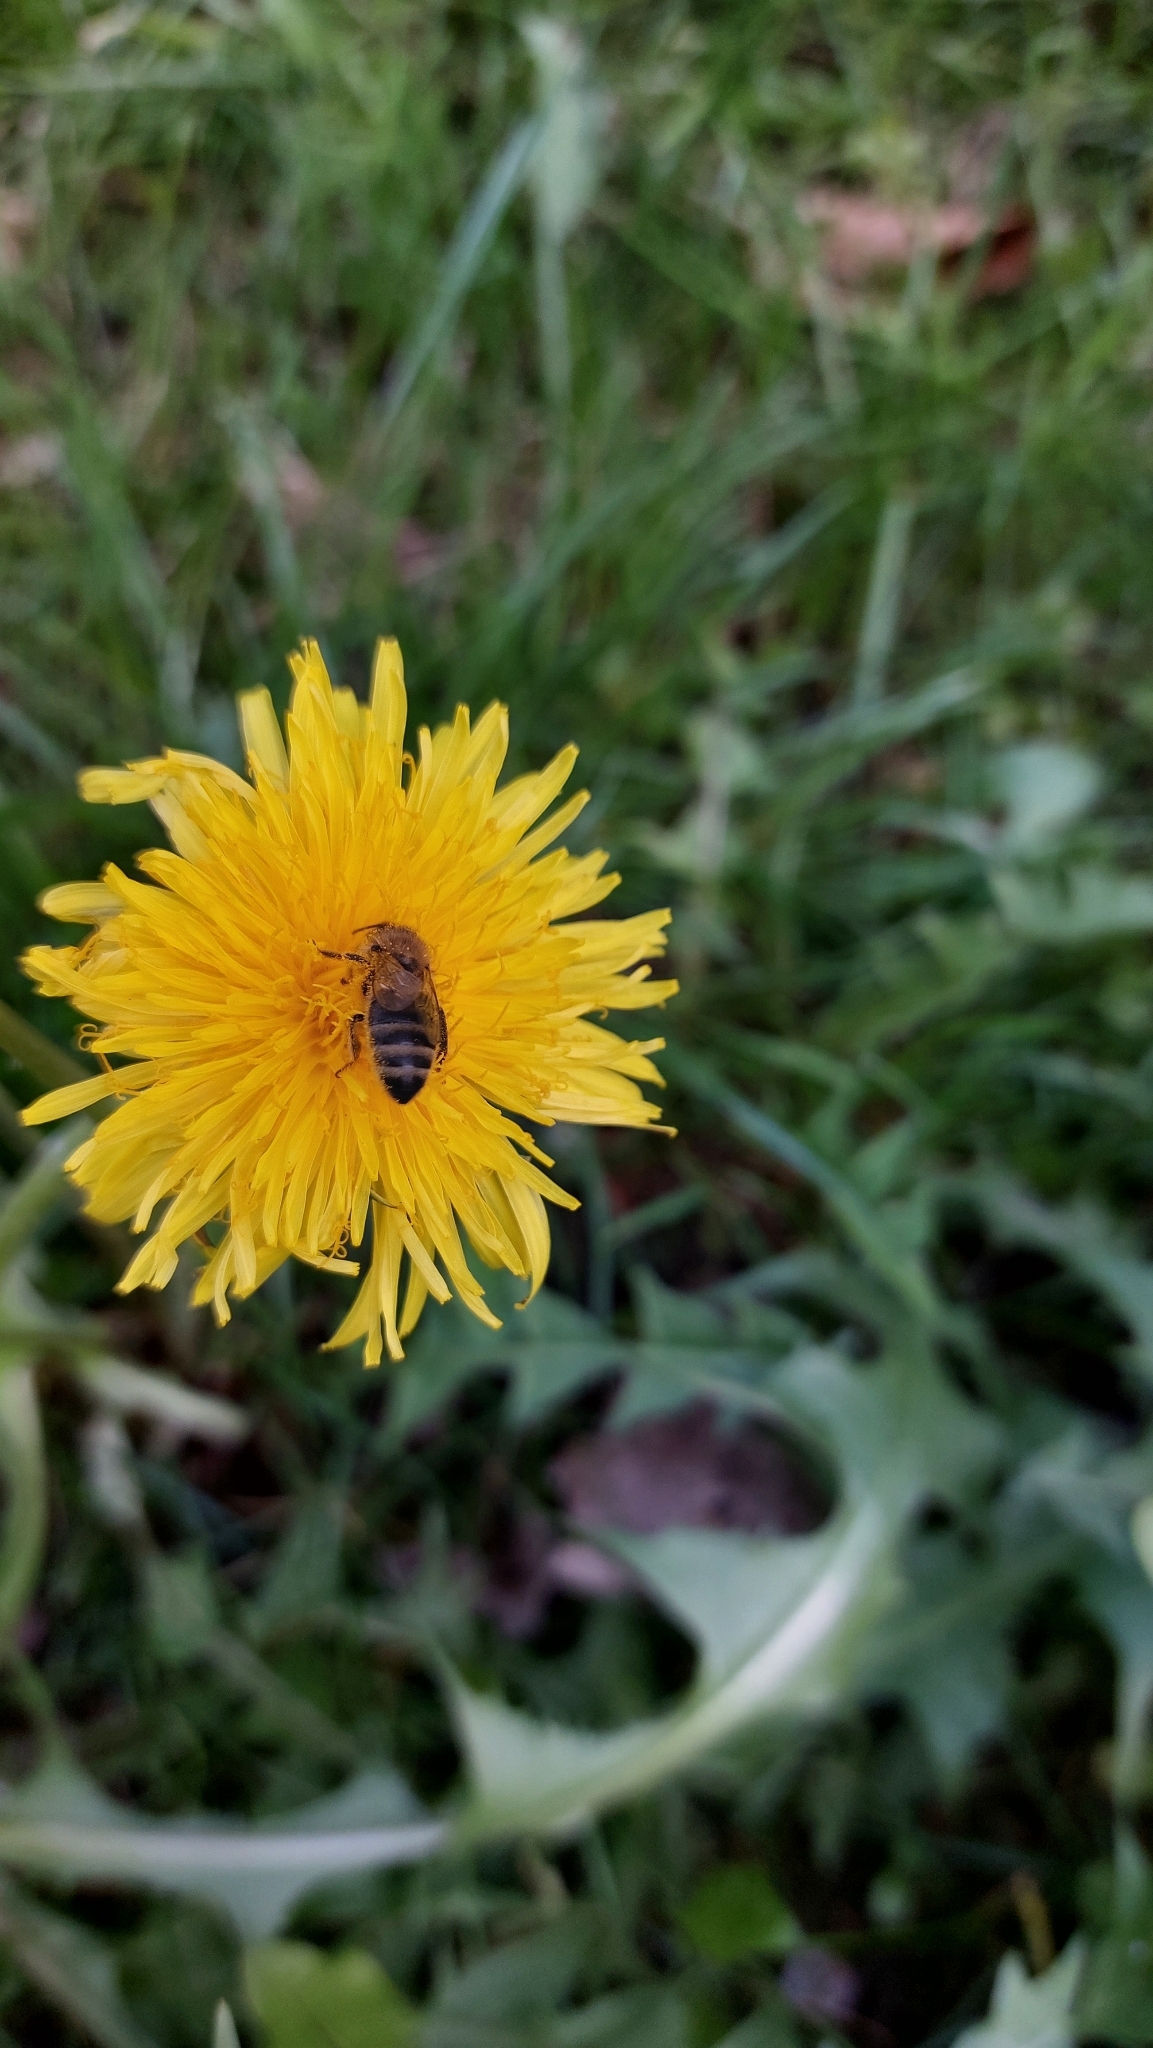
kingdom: Animalia
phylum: Arthropoda
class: Insecta
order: Hymenoptera
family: Apidae
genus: Apis
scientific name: Apis mellifera
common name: Honey bee
